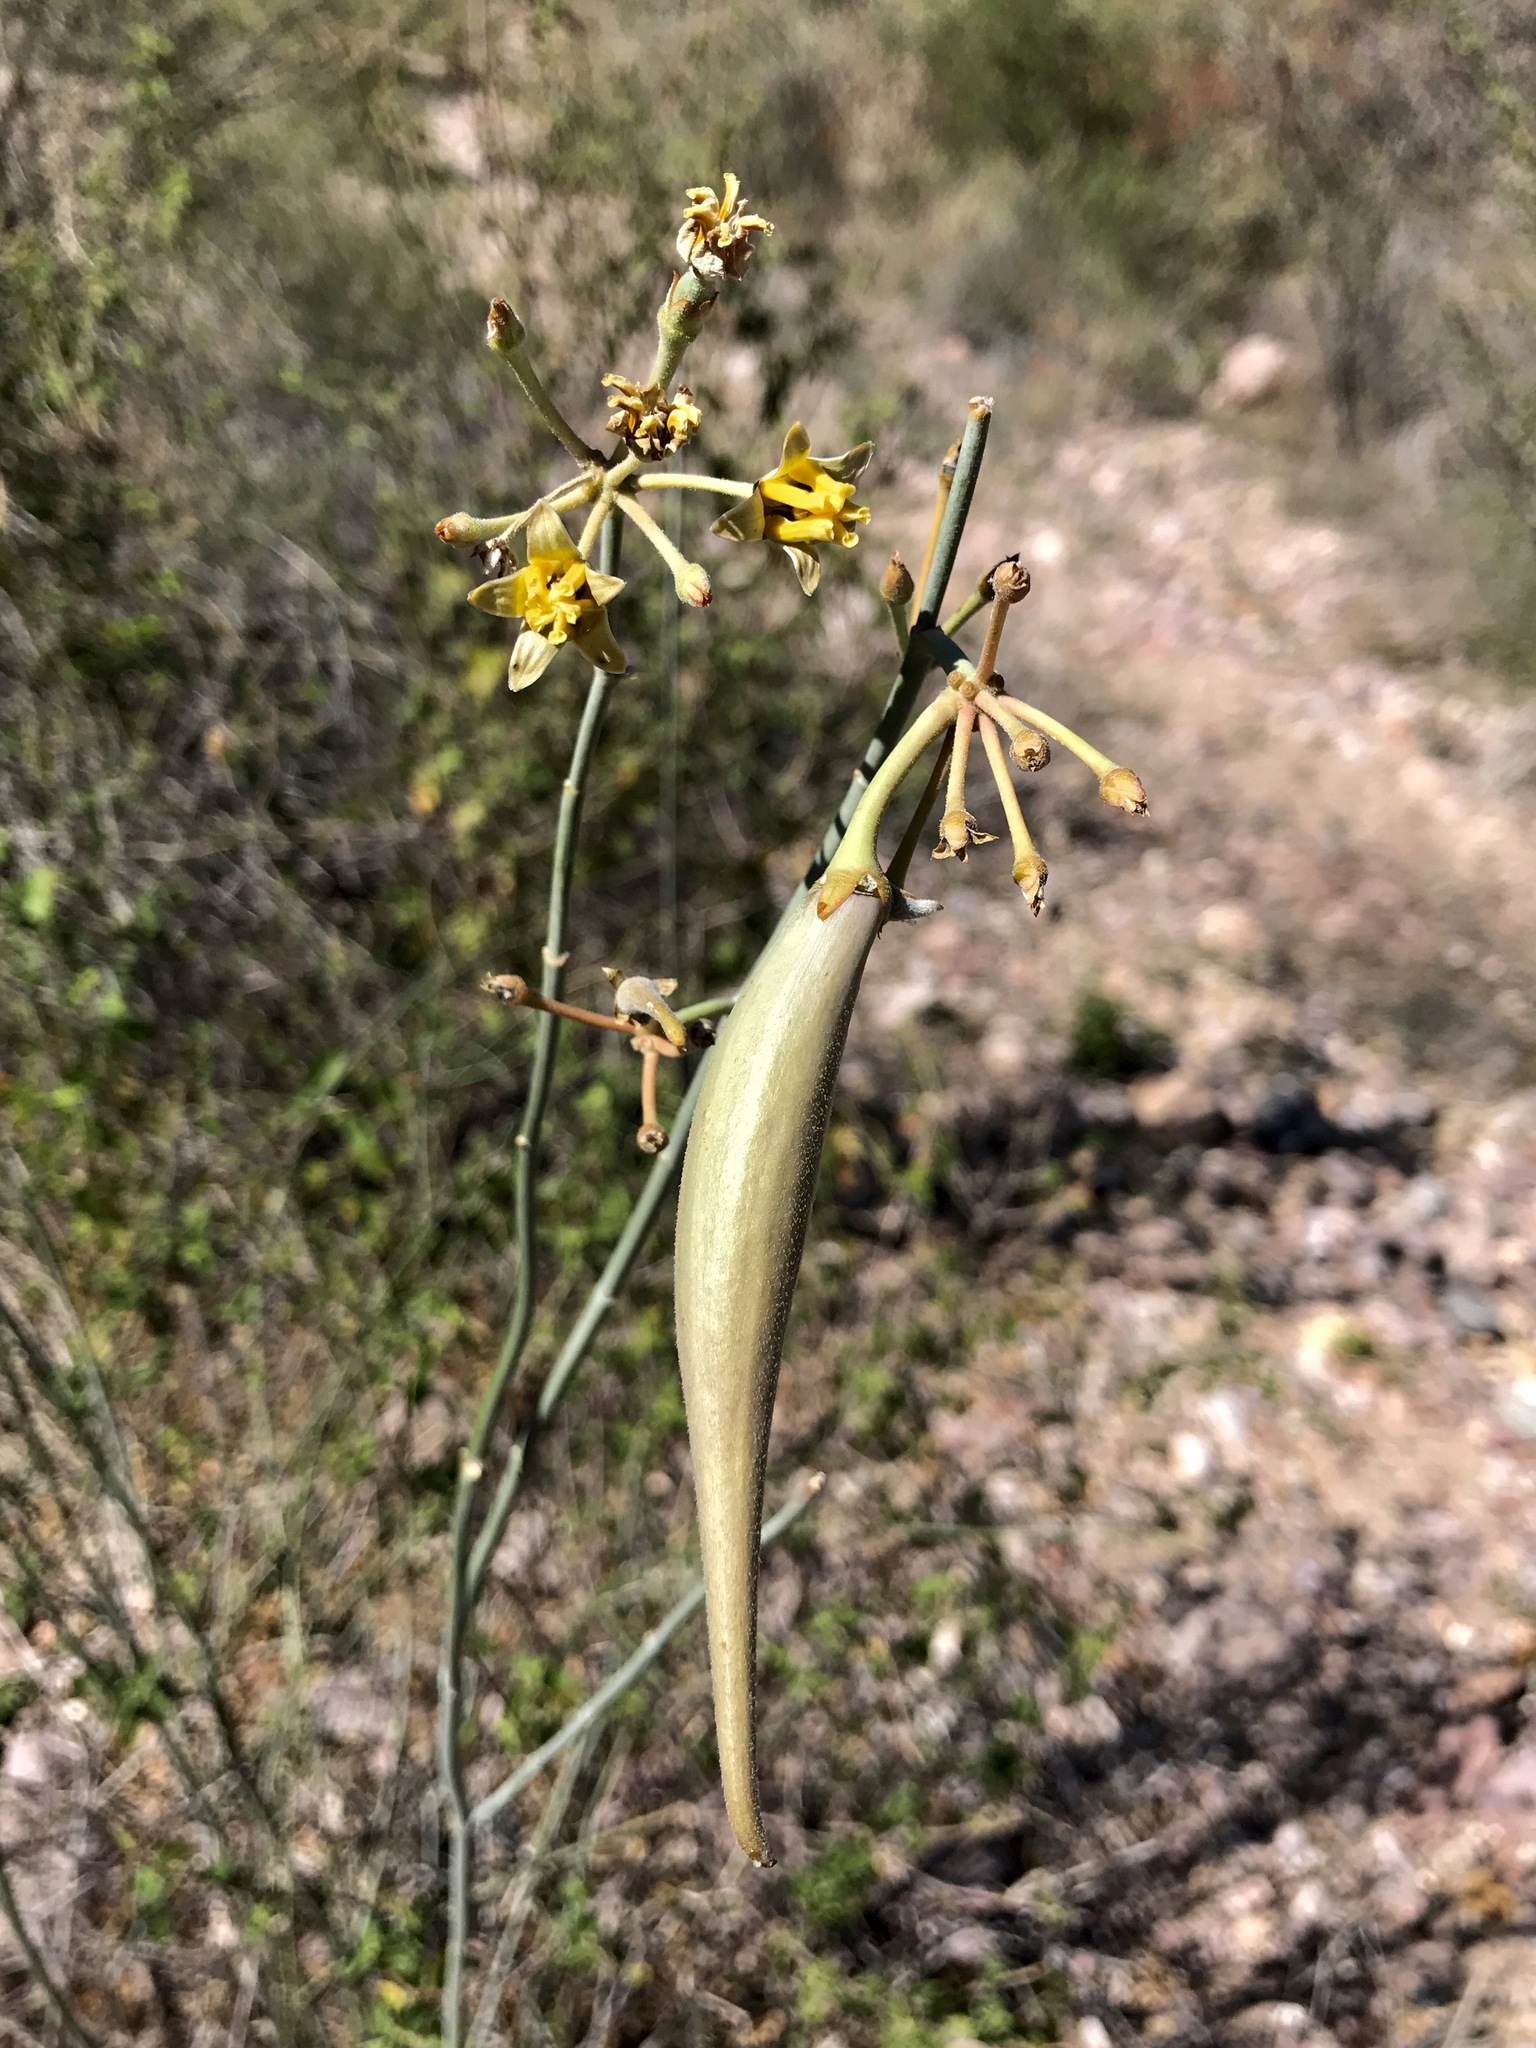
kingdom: Plantae
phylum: Tracheophyta
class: Magnoliopsida
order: Gentianales
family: Apocynaceae
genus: Asclepias
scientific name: Asclepias subulata
